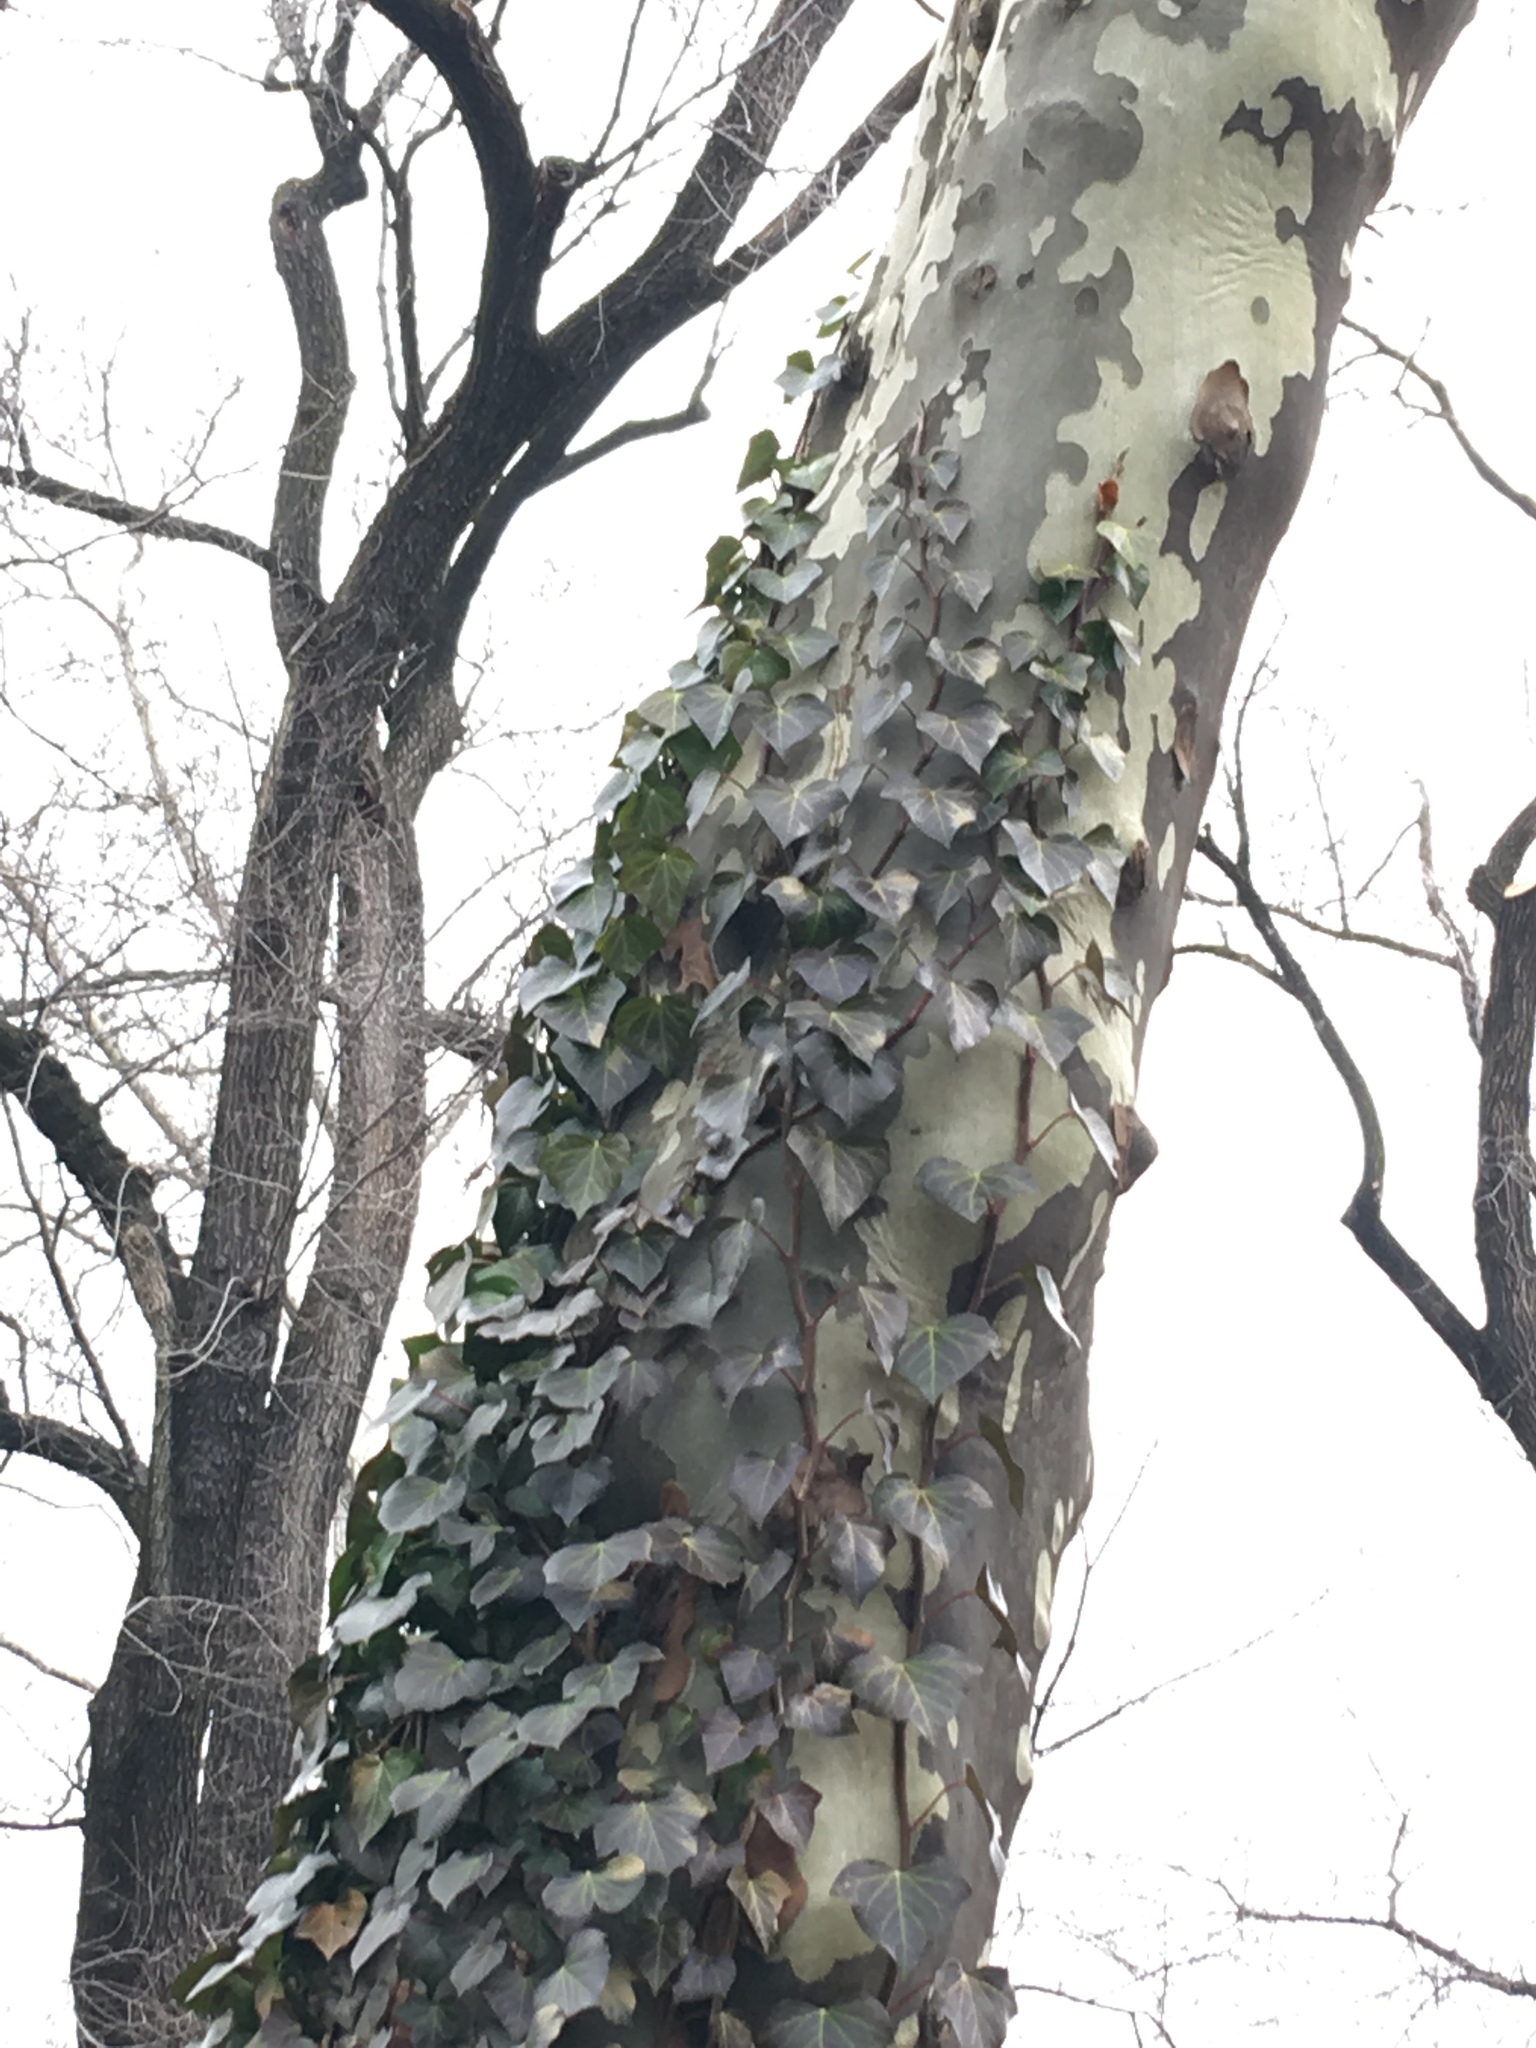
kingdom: Plantae
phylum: Tracheophyta
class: Magnoliopsida
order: Apiales
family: Araliaceae
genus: Hedera
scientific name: Hedera helix
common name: Ivy
